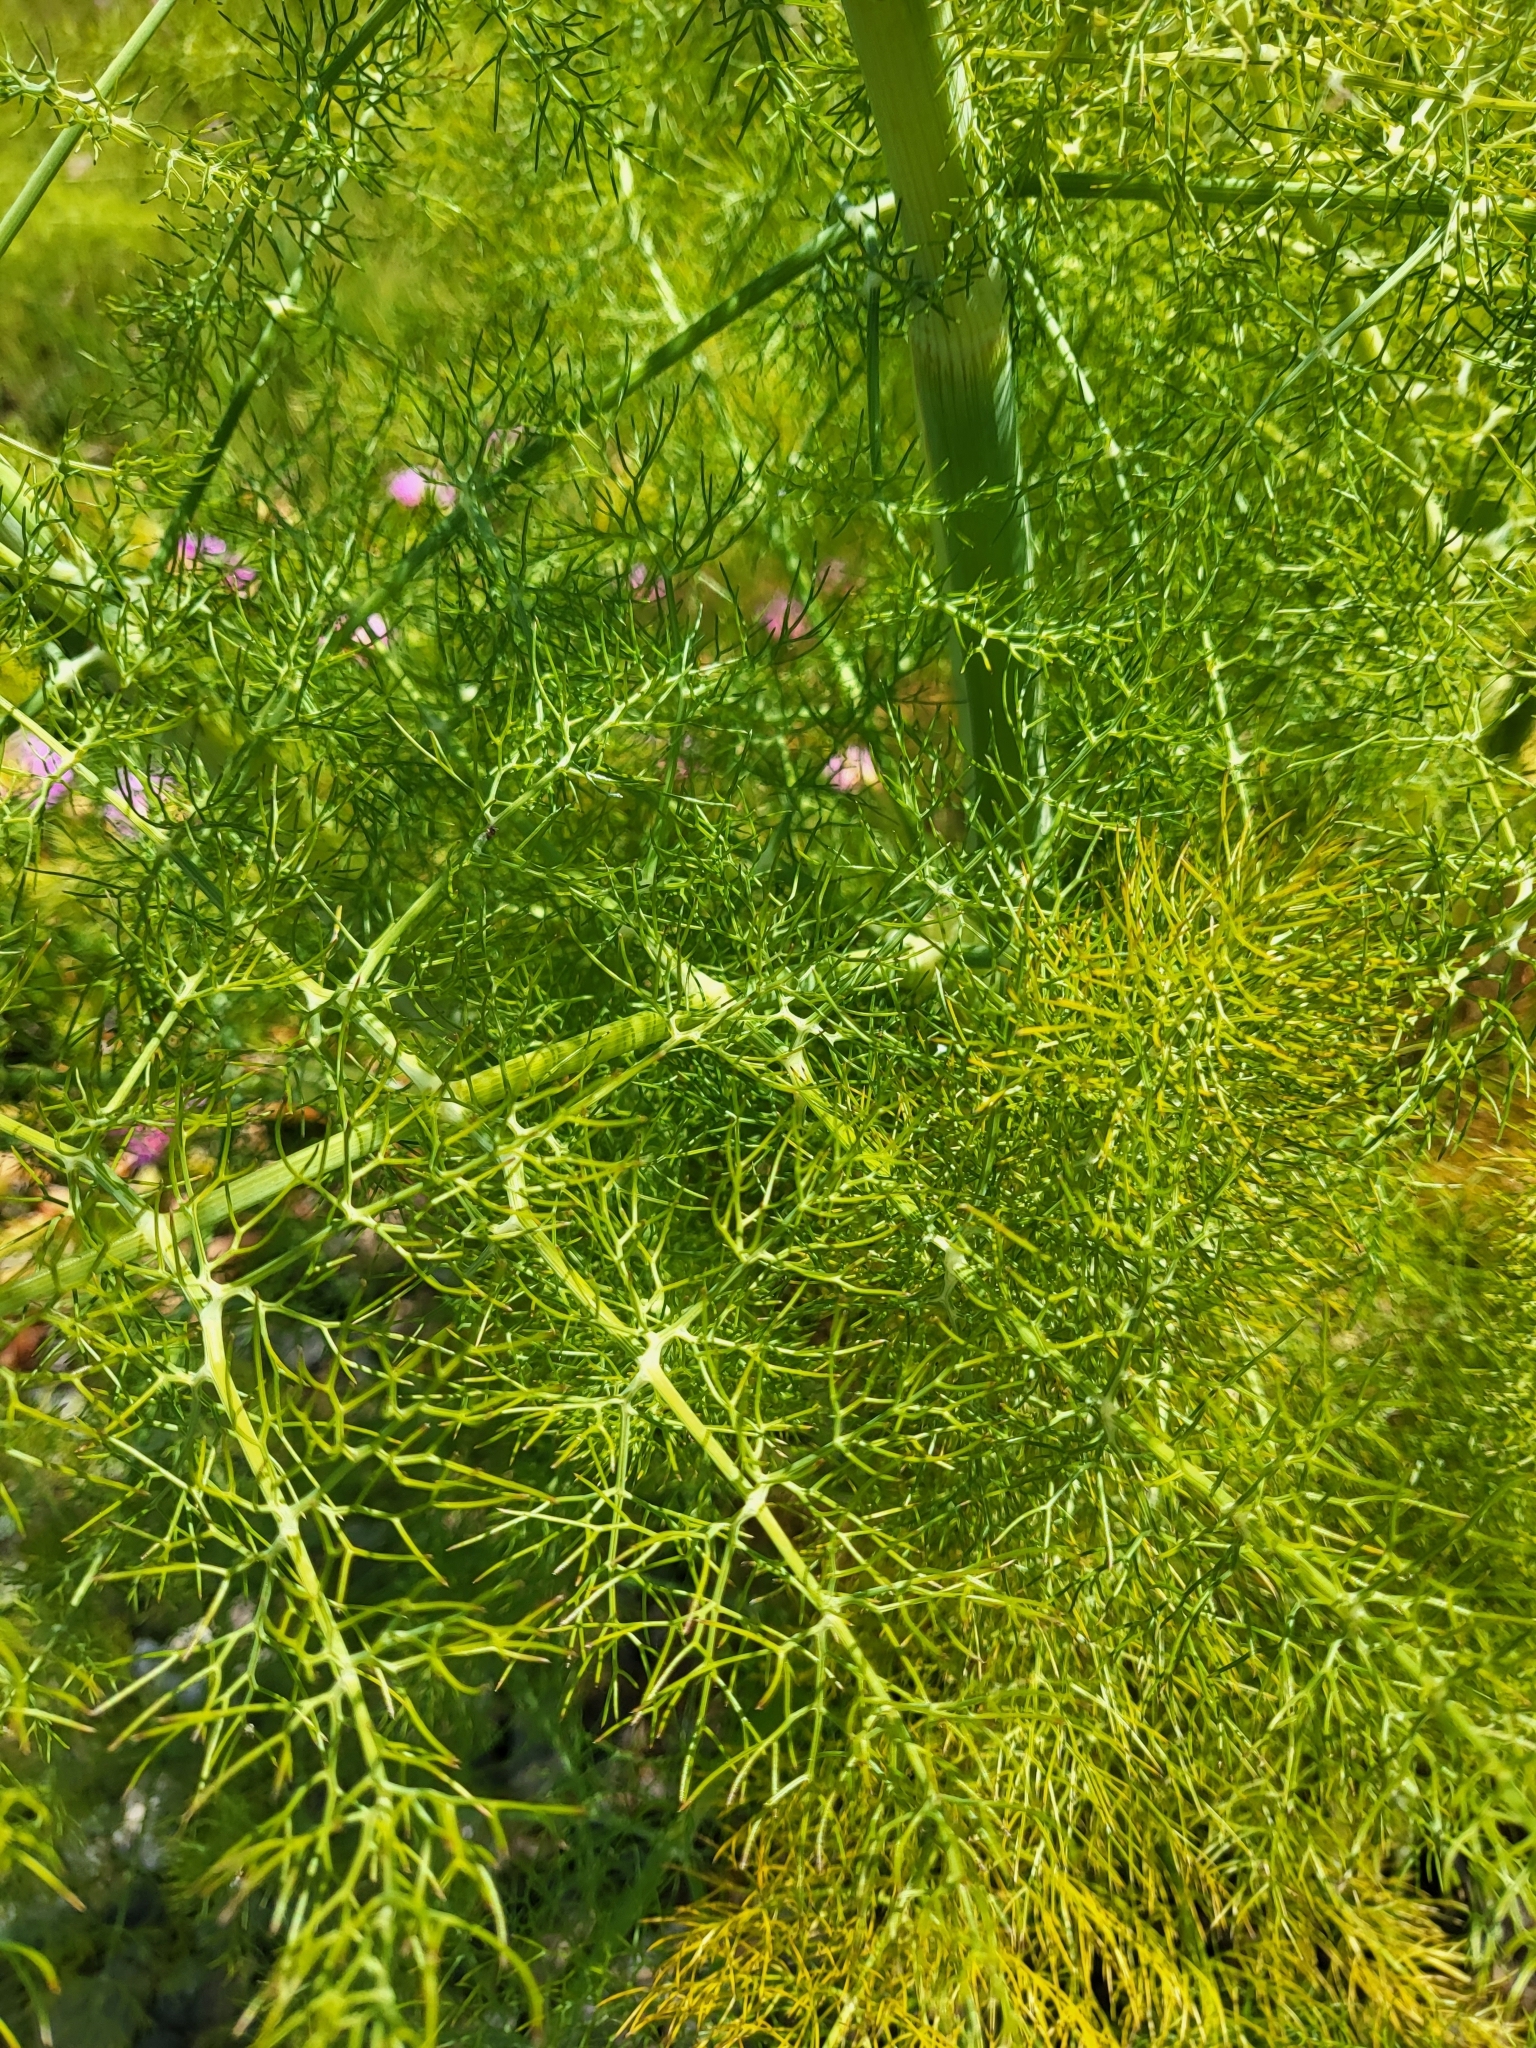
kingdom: Plantae
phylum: Tracheophyta
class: Magnoliopsida
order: Apiales
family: Apiaceae
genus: Foeniculum
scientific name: Foeniculum vulgare
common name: Fennel
